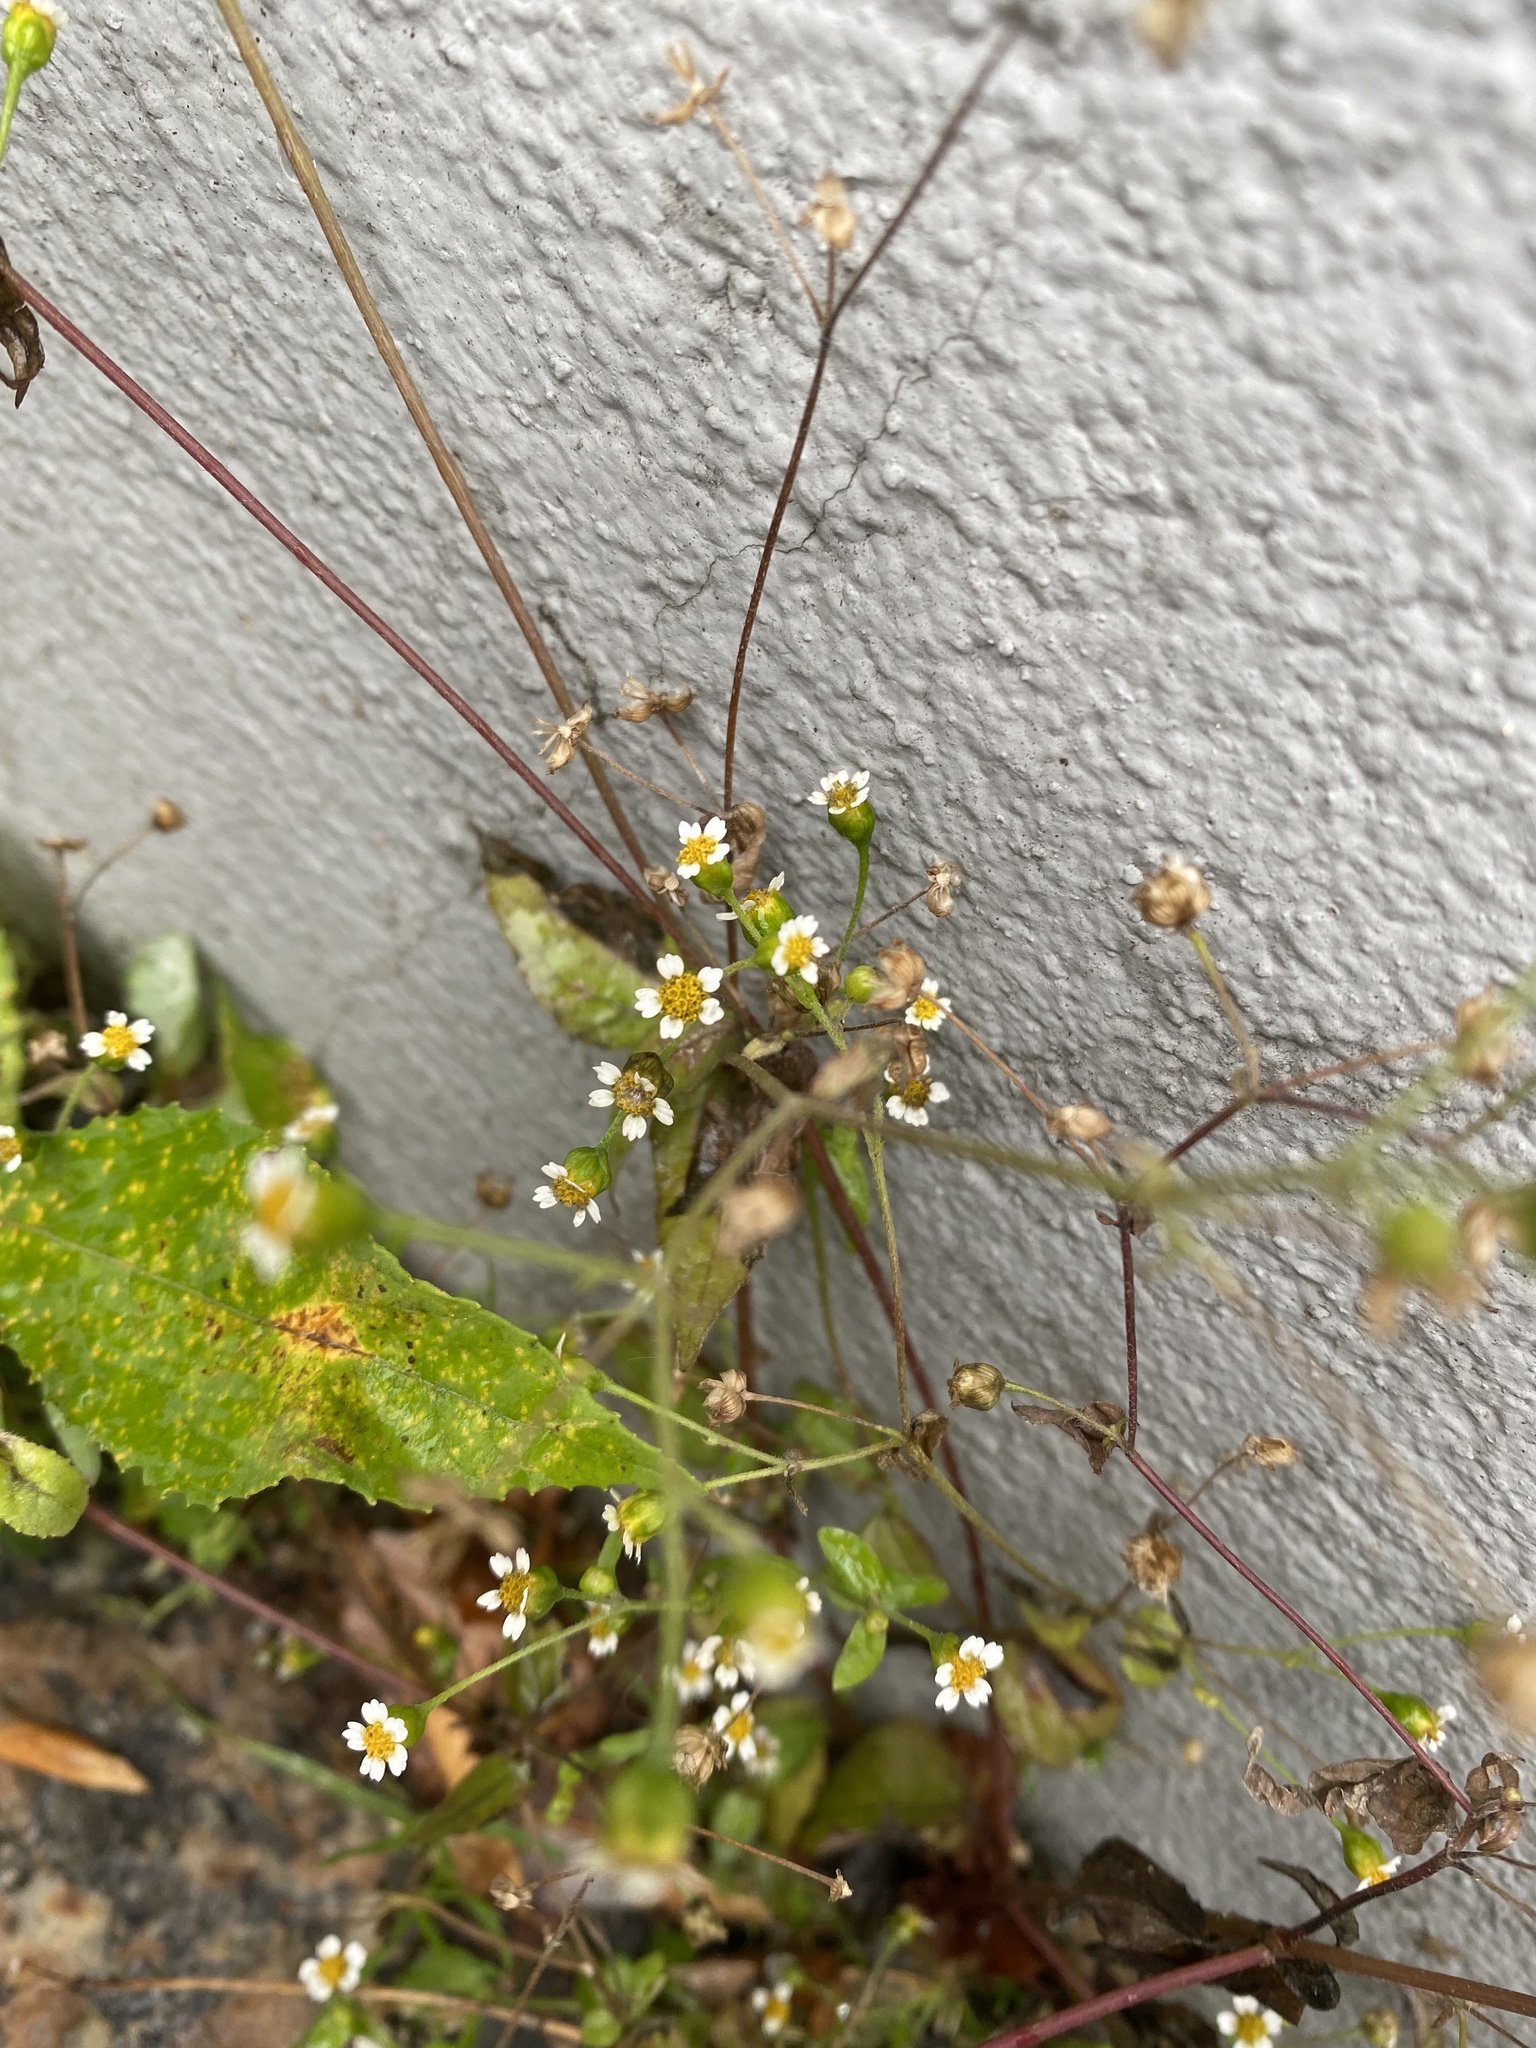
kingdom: Plantae
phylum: Tracheophyta
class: Magnoliopsida
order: Asterales
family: Asteraceae
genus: Galinsoga
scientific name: Galinsoga parviflora
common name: Gallant soldier
